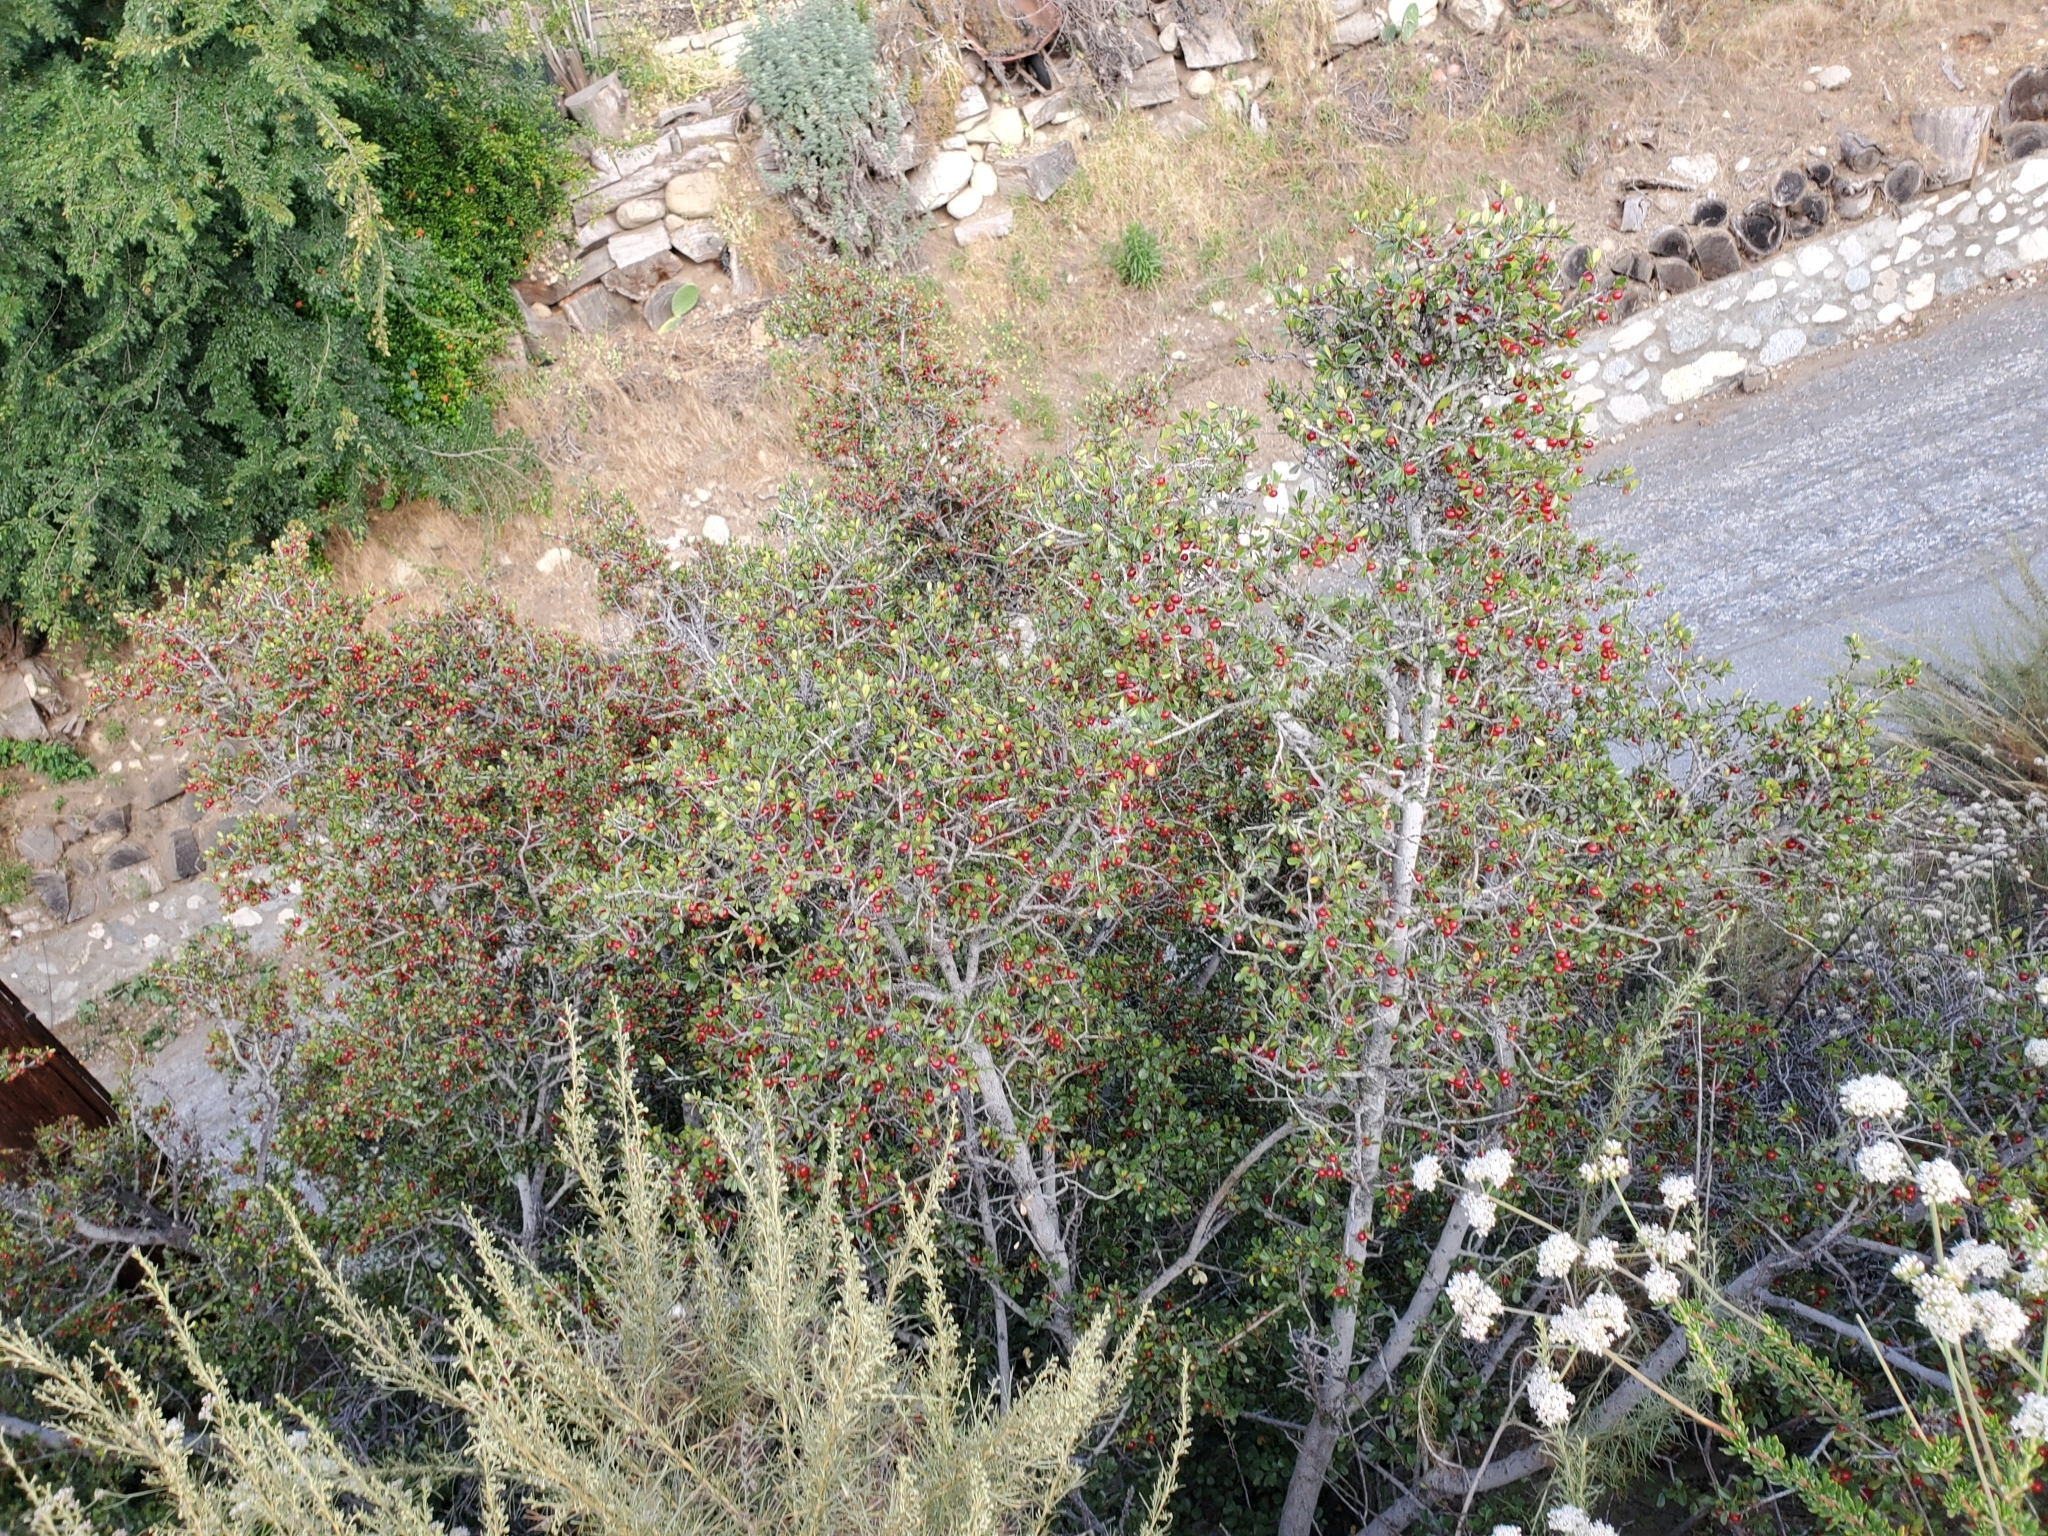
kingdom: Plantae
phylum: Tracheophyta
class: Magnoliopsida
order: Rosales
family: Rhamnaceae
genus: Endotropis
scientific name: Endotropis crocea
